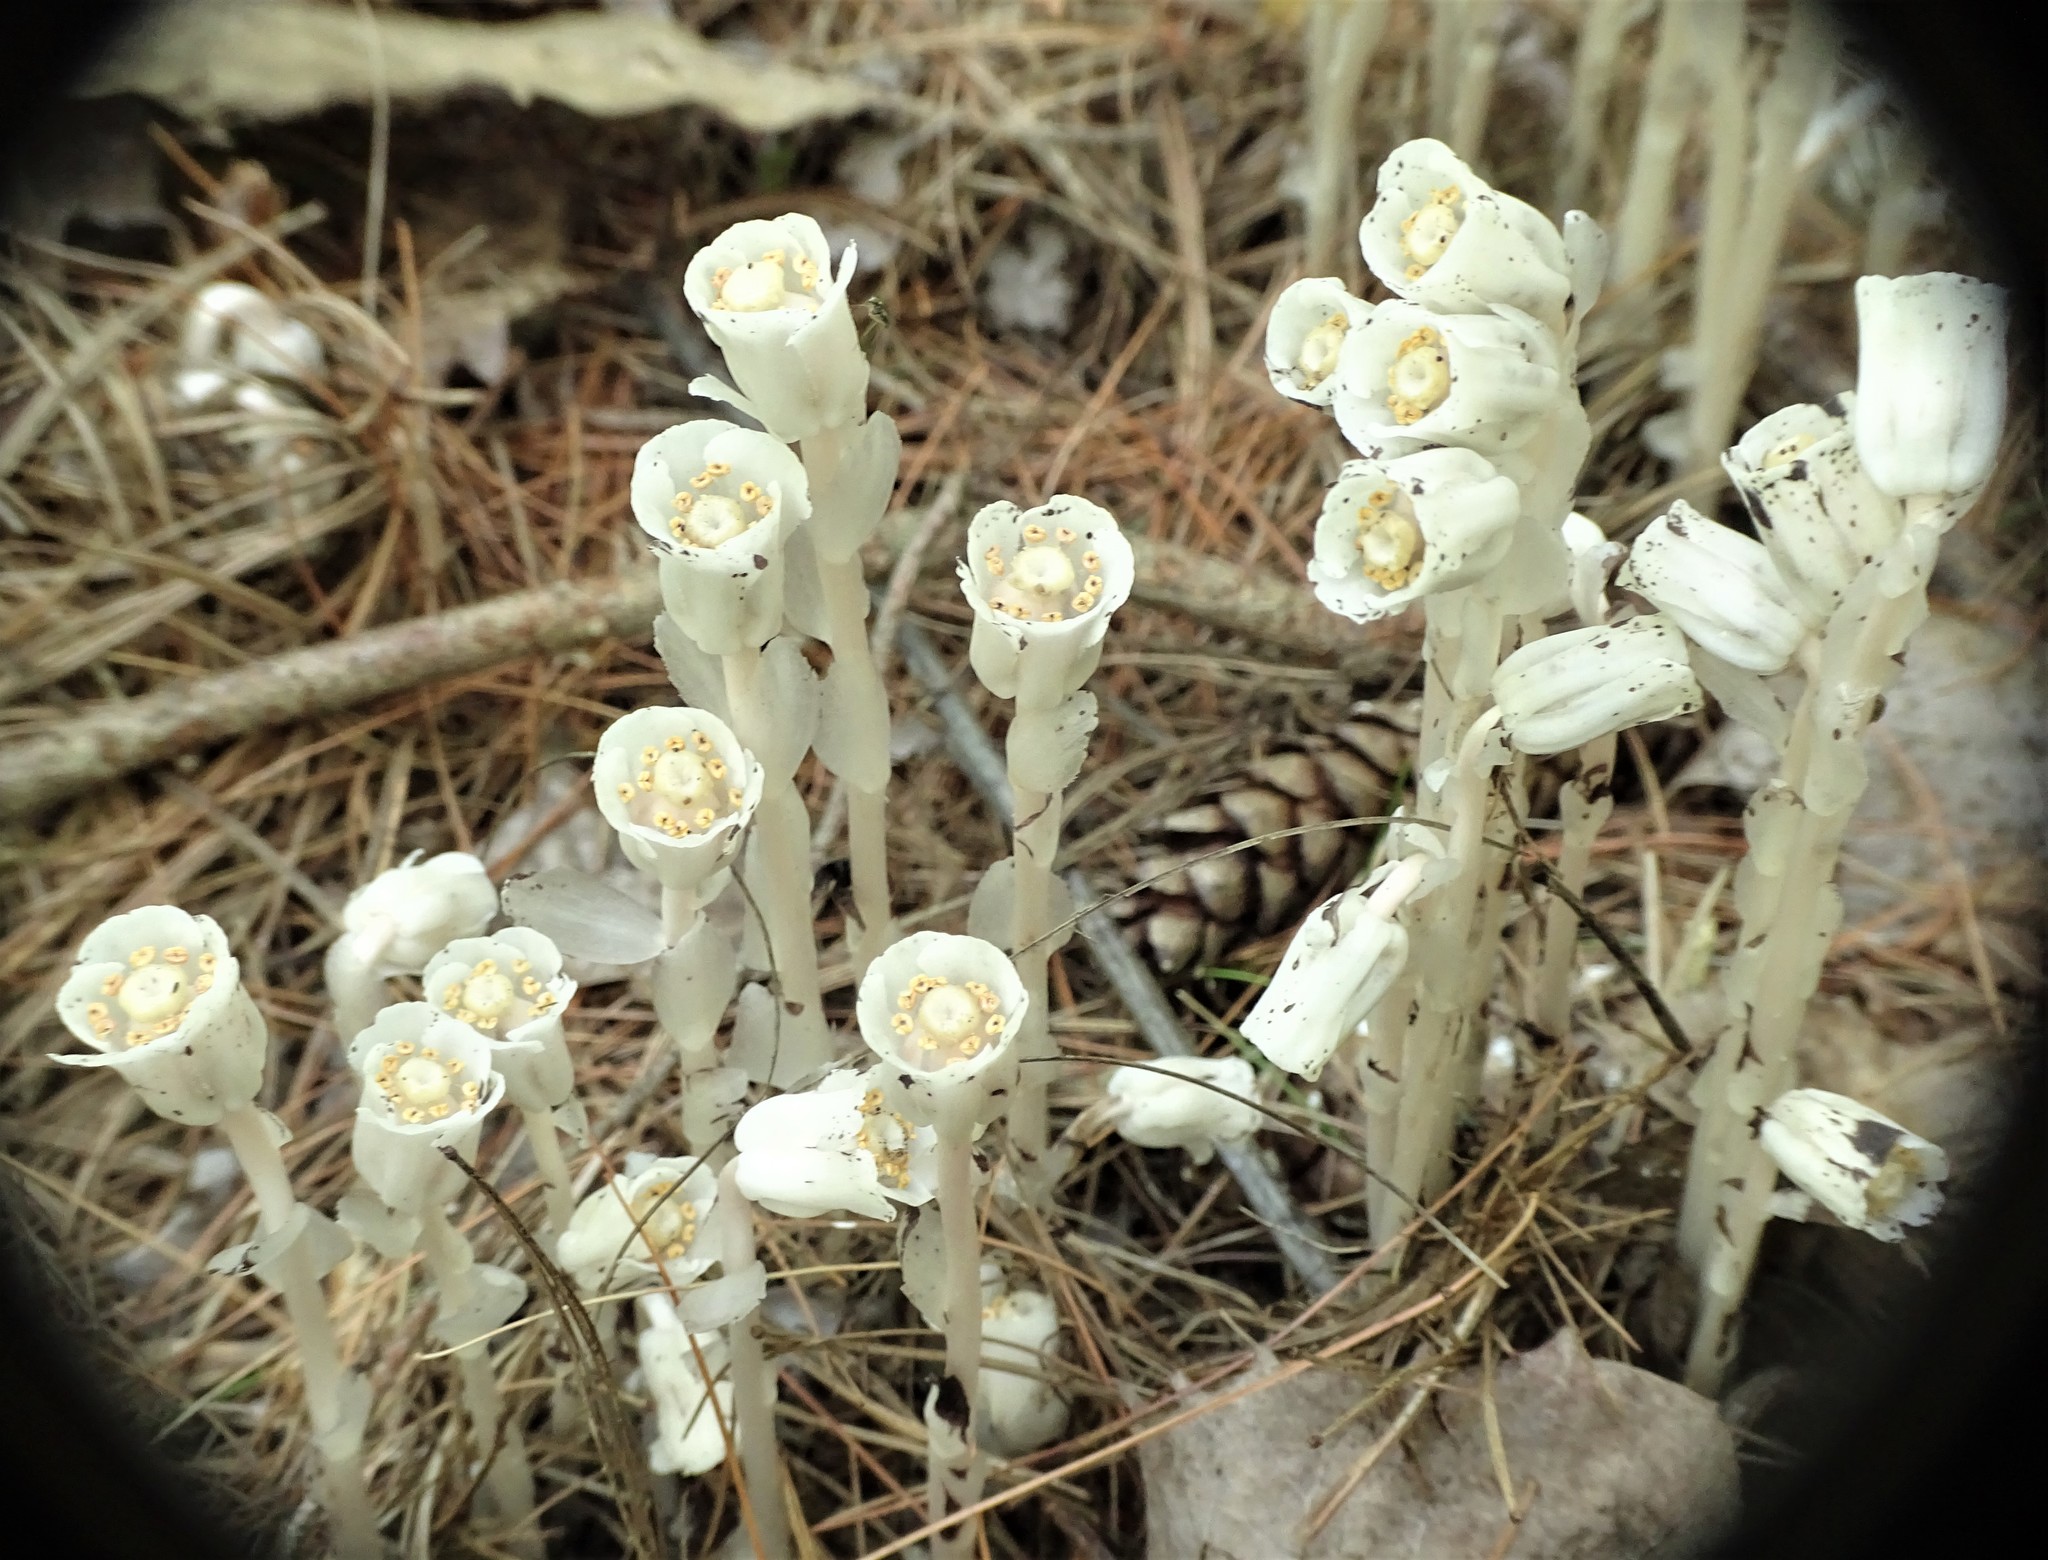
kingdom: Plantae
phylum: Tracheophyta
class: Magnoliopsida
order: Ericales
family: Ericaceae
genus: Monotropa
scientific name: Monotropa uniflora
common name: Convulsion root
